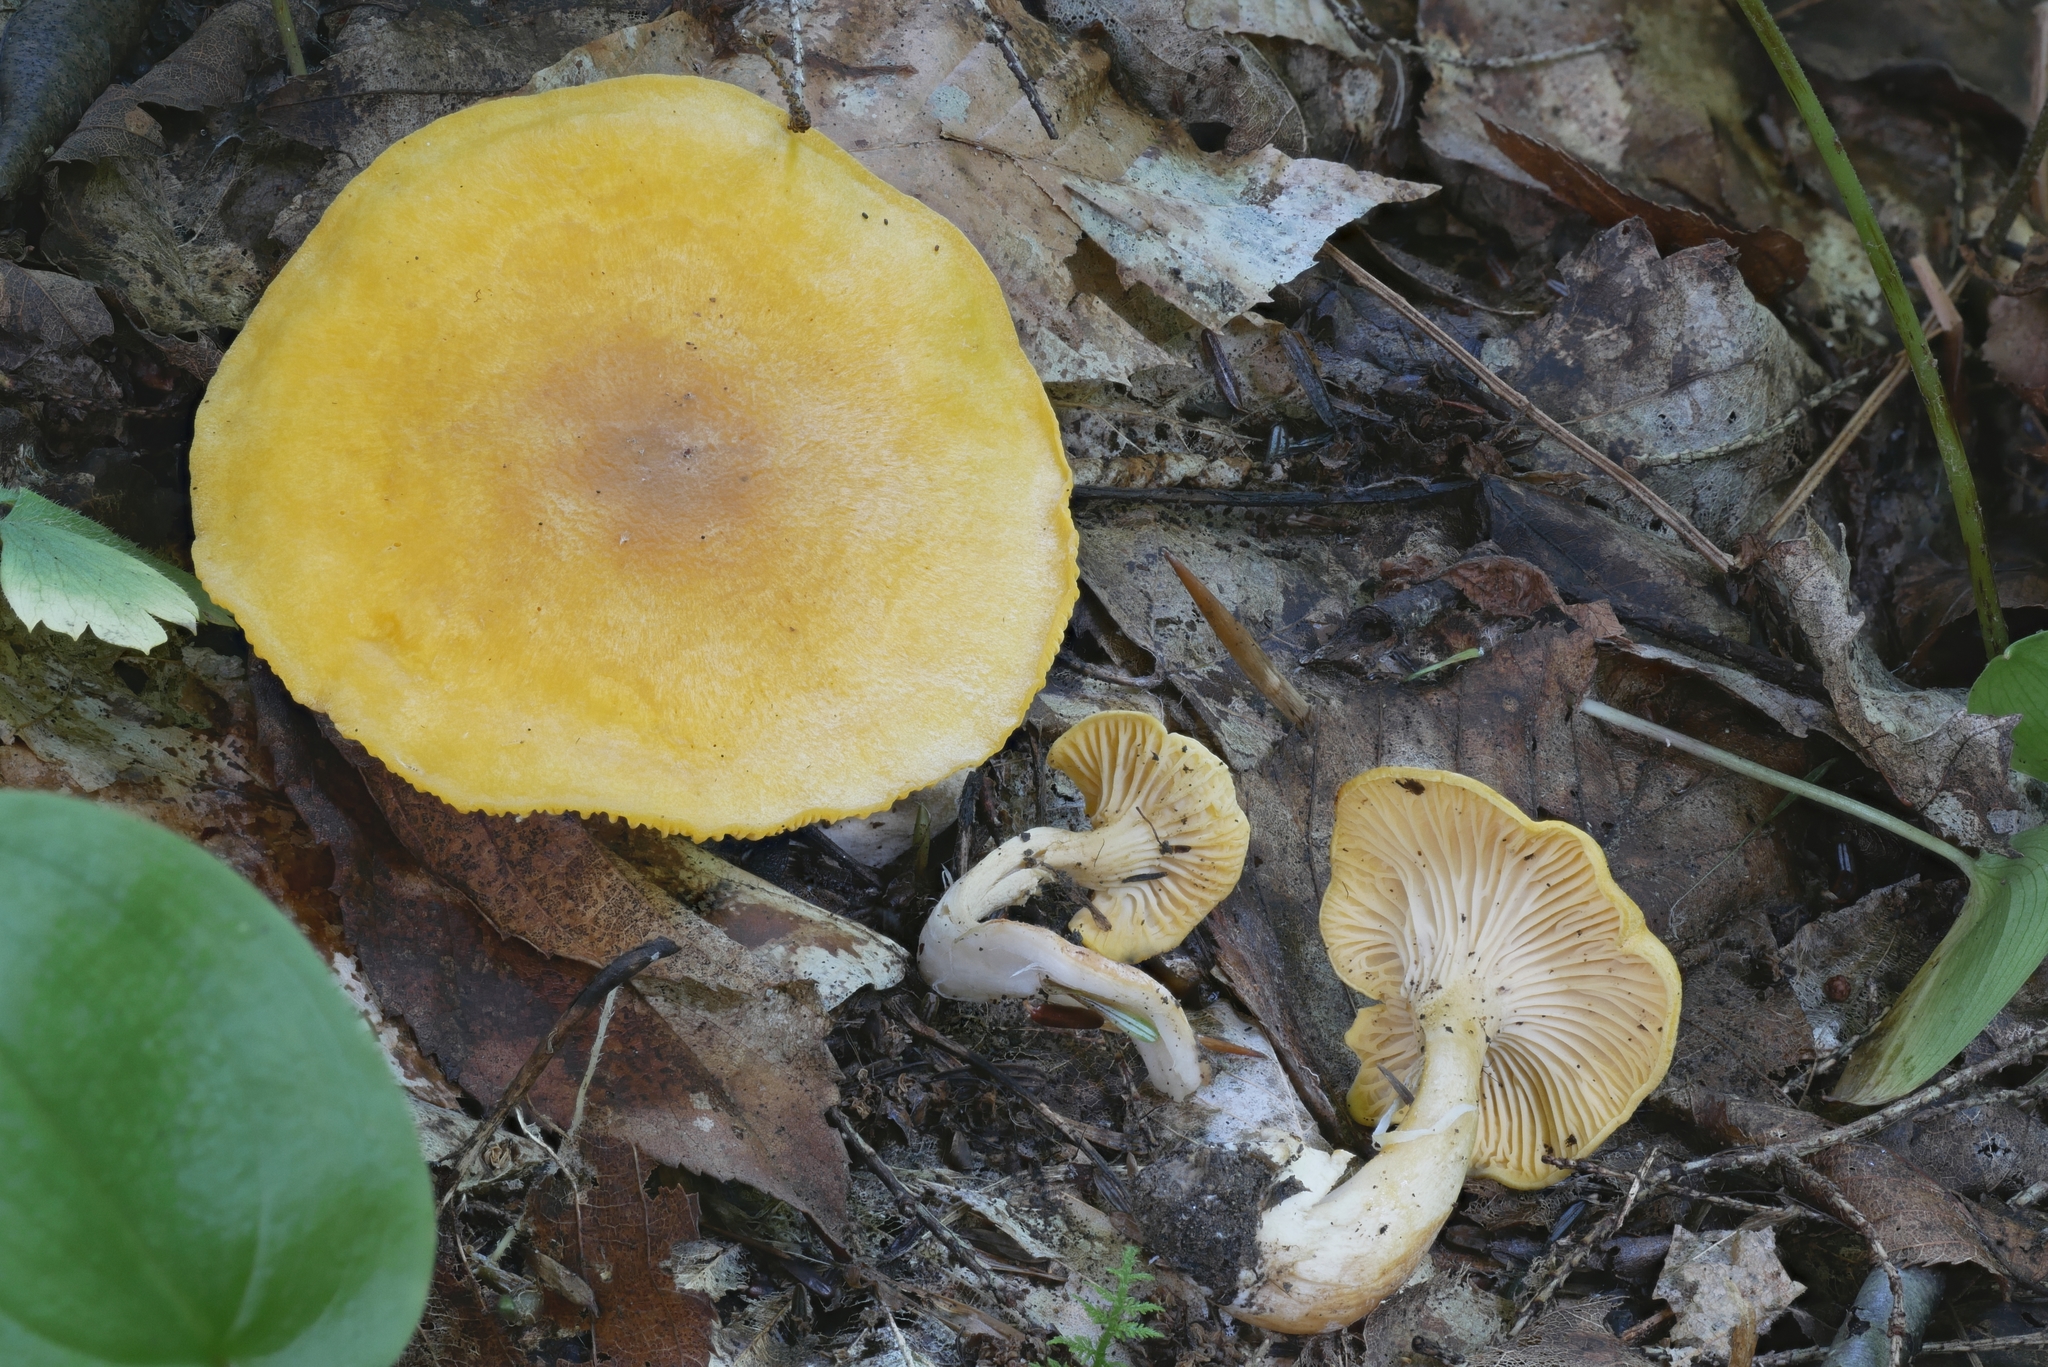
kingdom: Fungi
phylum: Basidiomycota
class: Agaricomycetes
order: Cantharellales
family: Hydnaceae
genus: Cantharellus
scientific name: Cantharellus altipes
